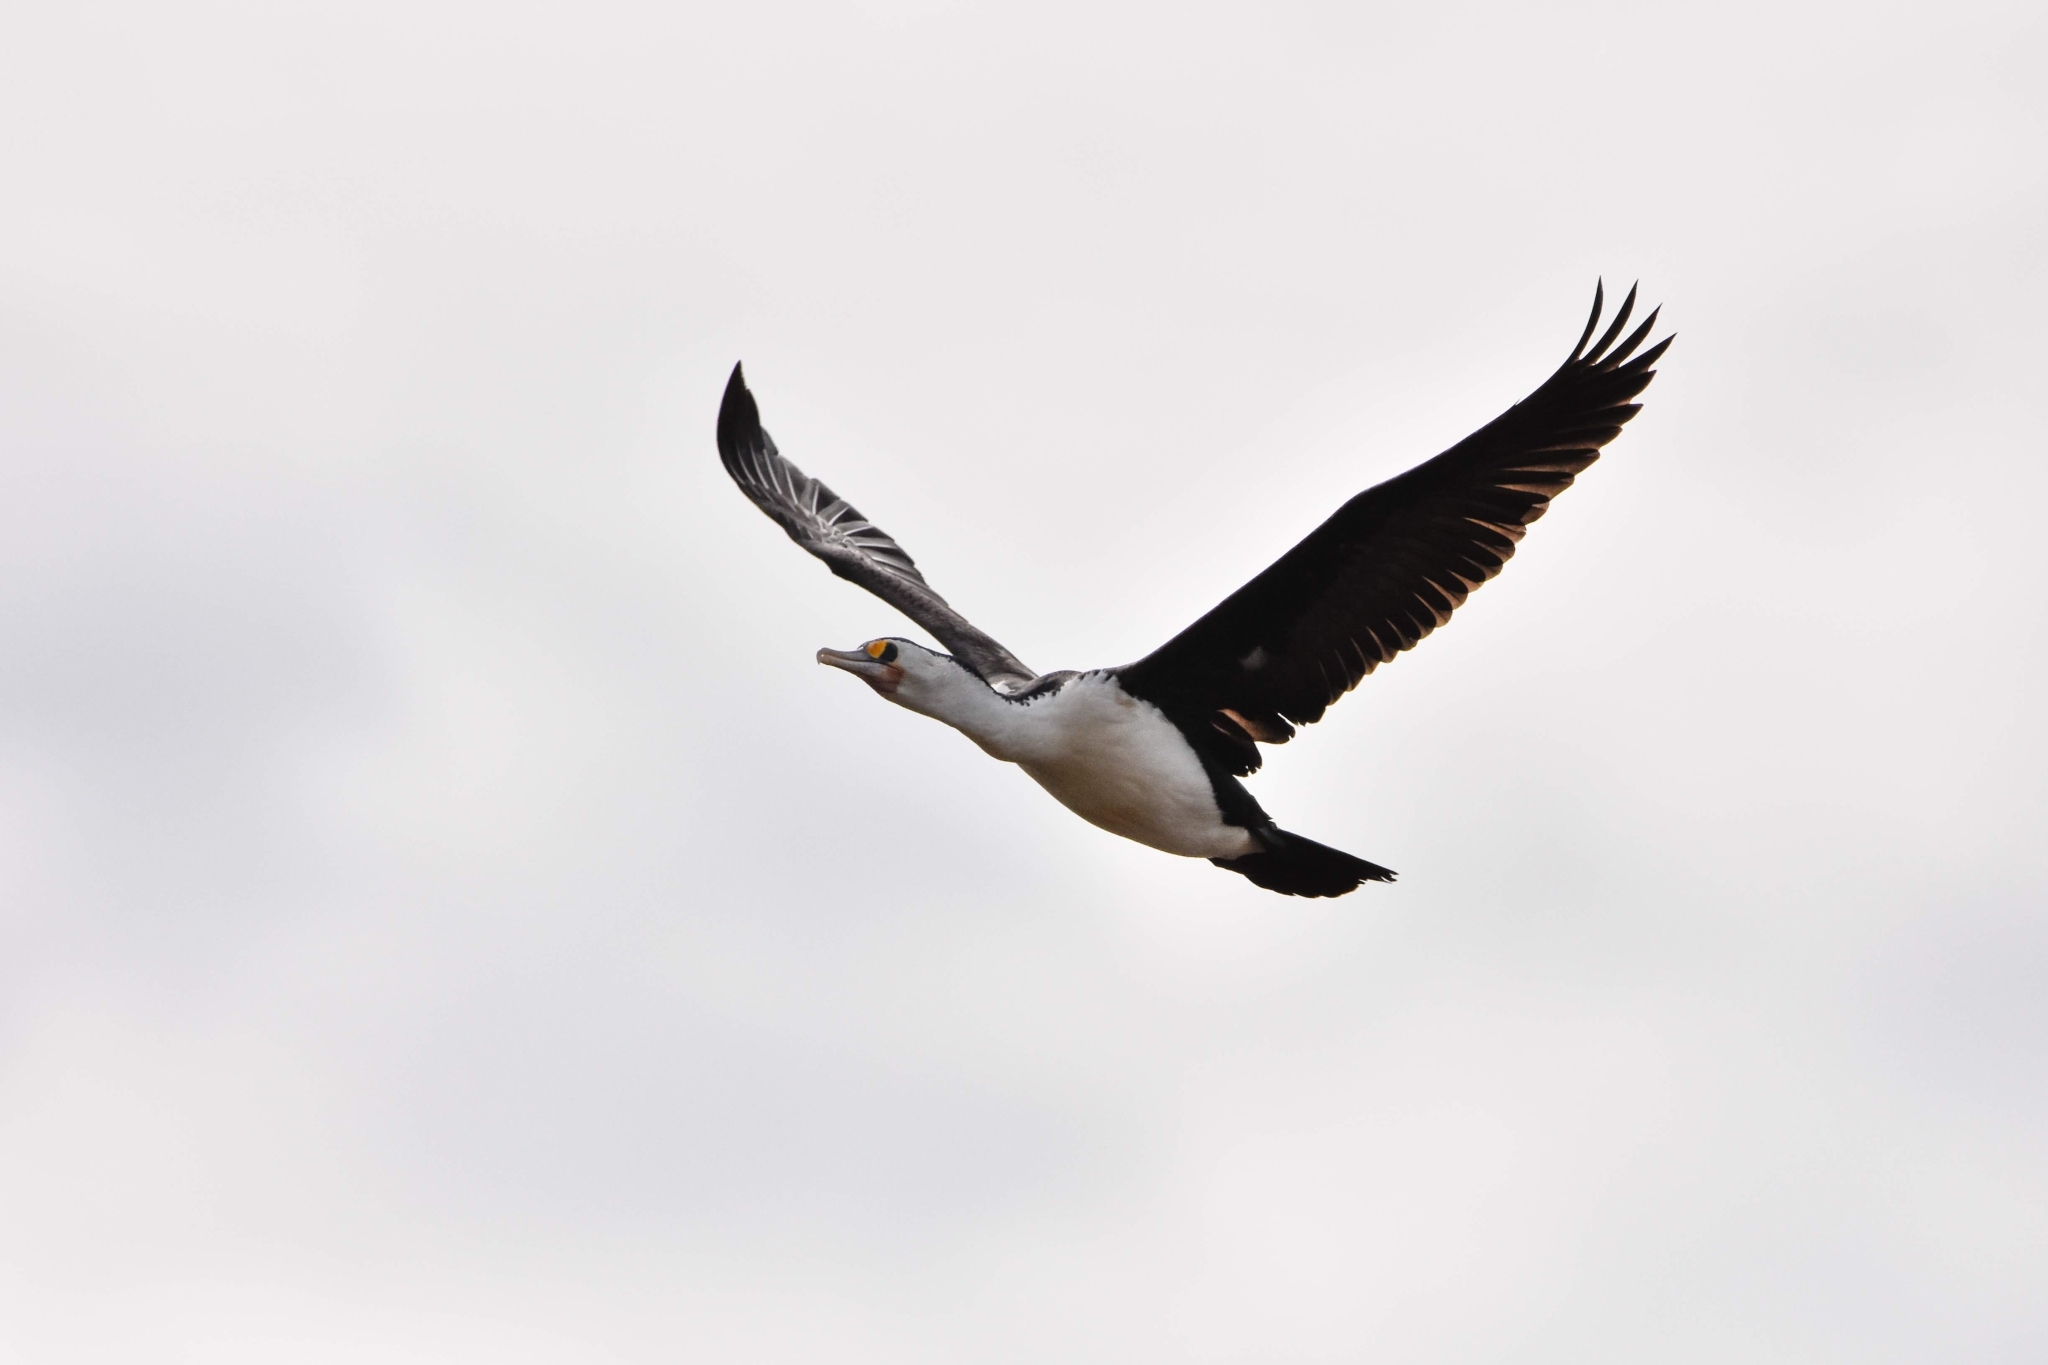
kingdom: Animalia
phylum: Chordata
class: Aves
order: Suliformes
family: Phalacrocoracidae
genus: Phalacrocorax
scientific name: Phalacrocorax varius
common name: Pied cormorant
